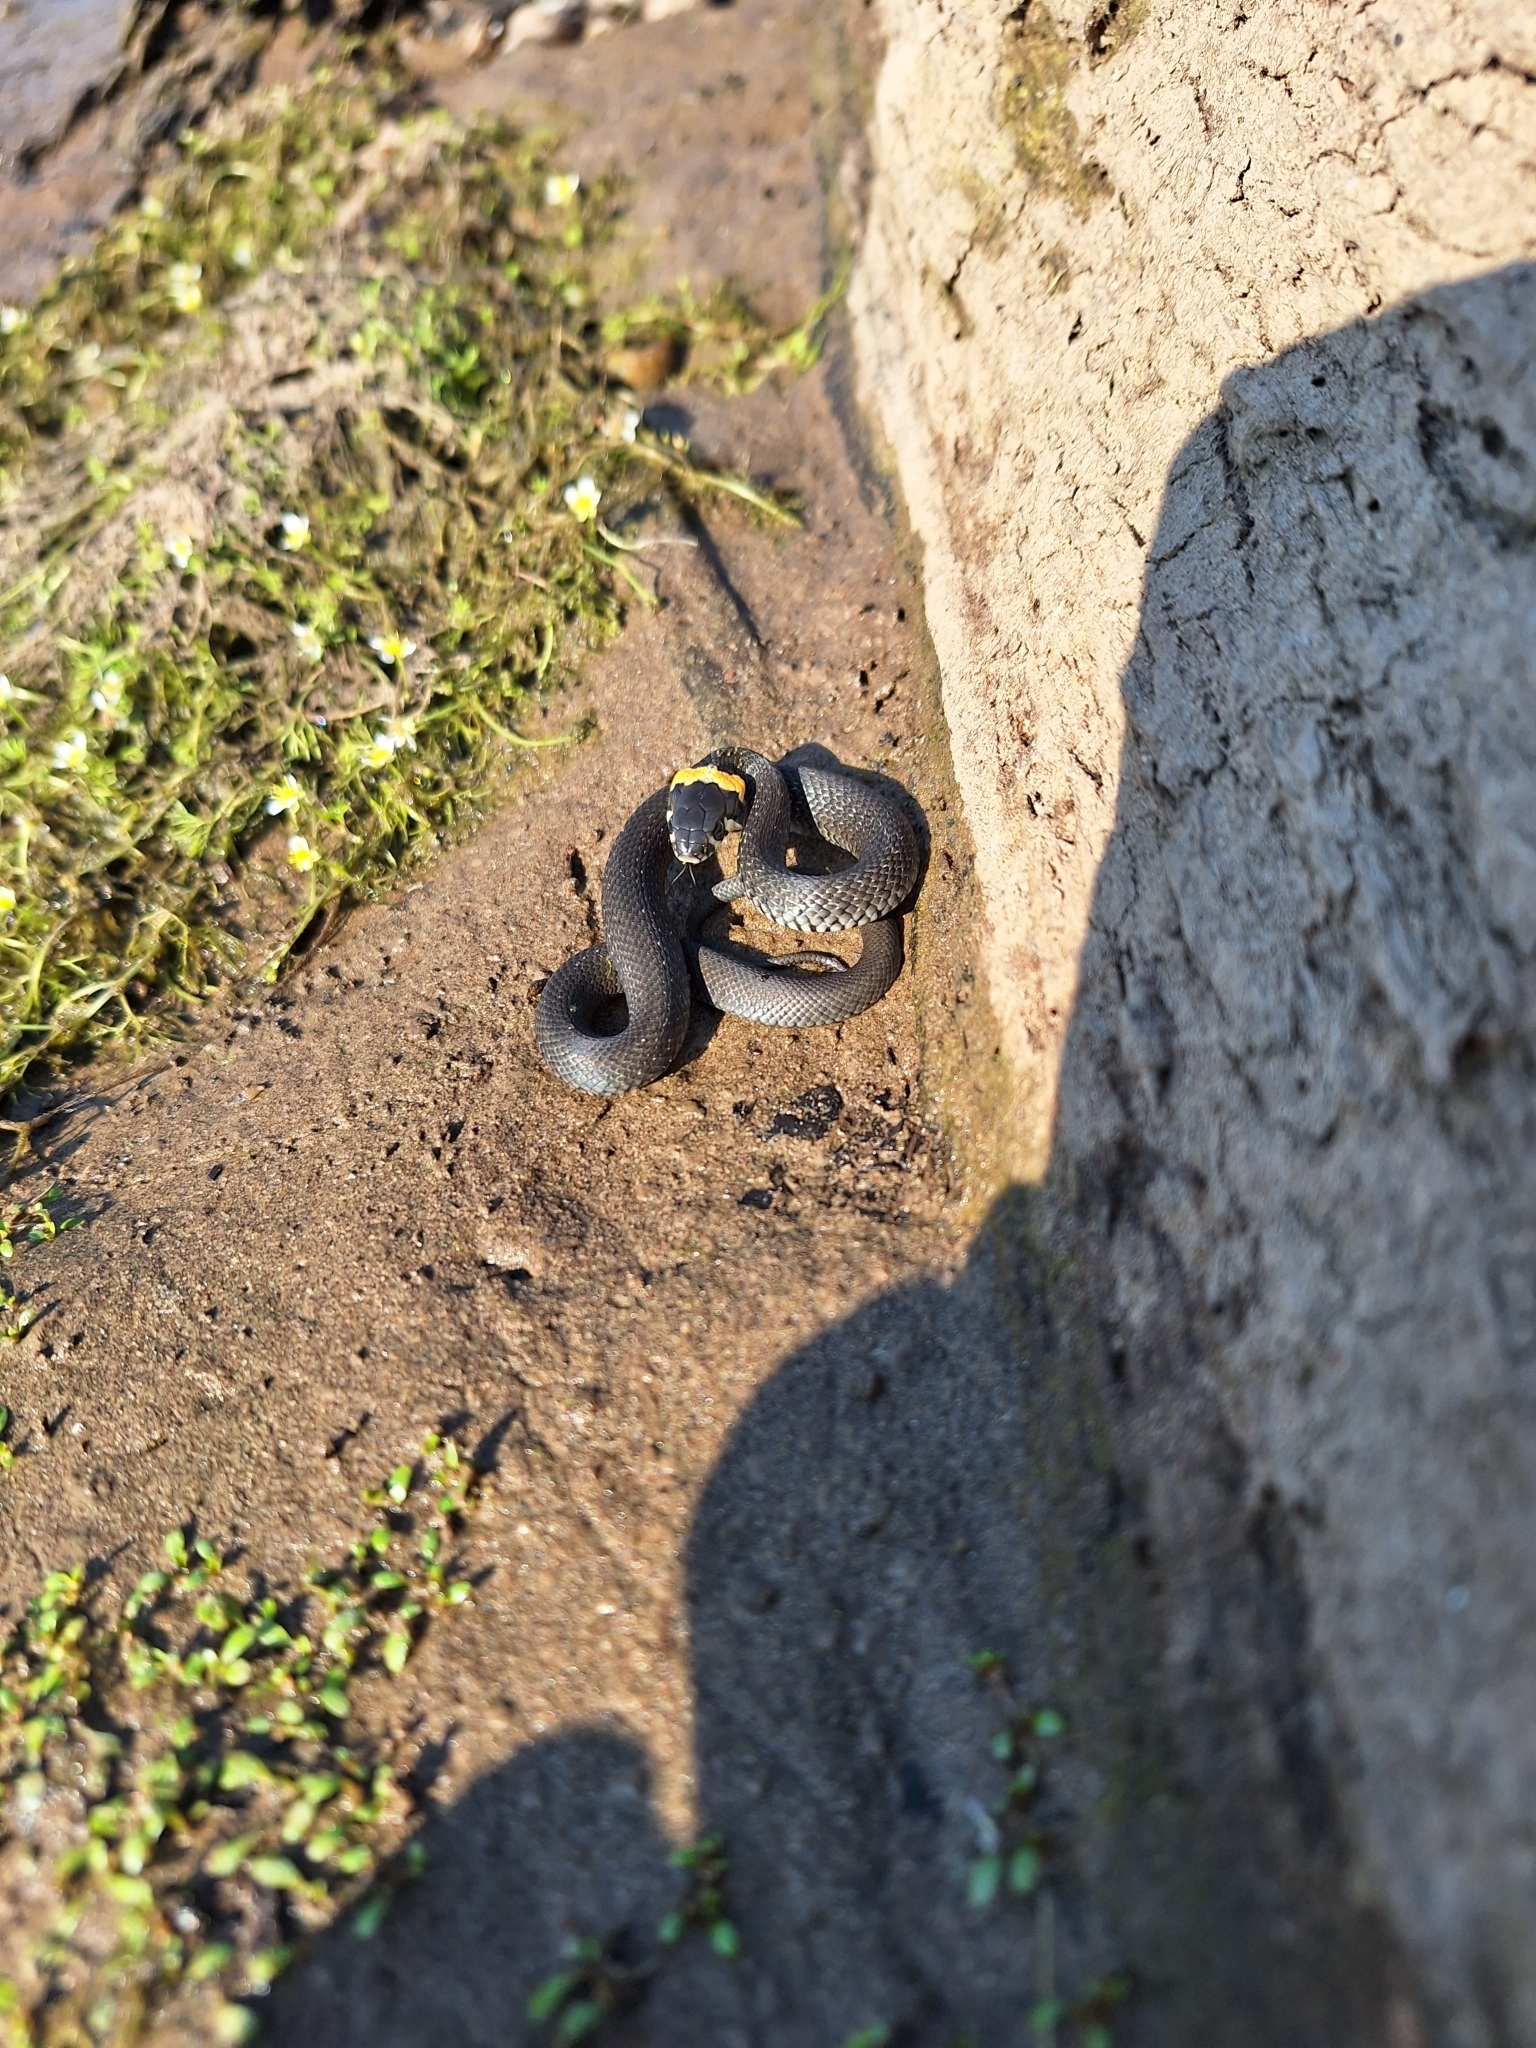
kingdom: Animalia
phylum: Chordata
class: Squamata
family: Colubridae
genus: Natrix
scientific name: Natrix natrix
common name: Grass snake
